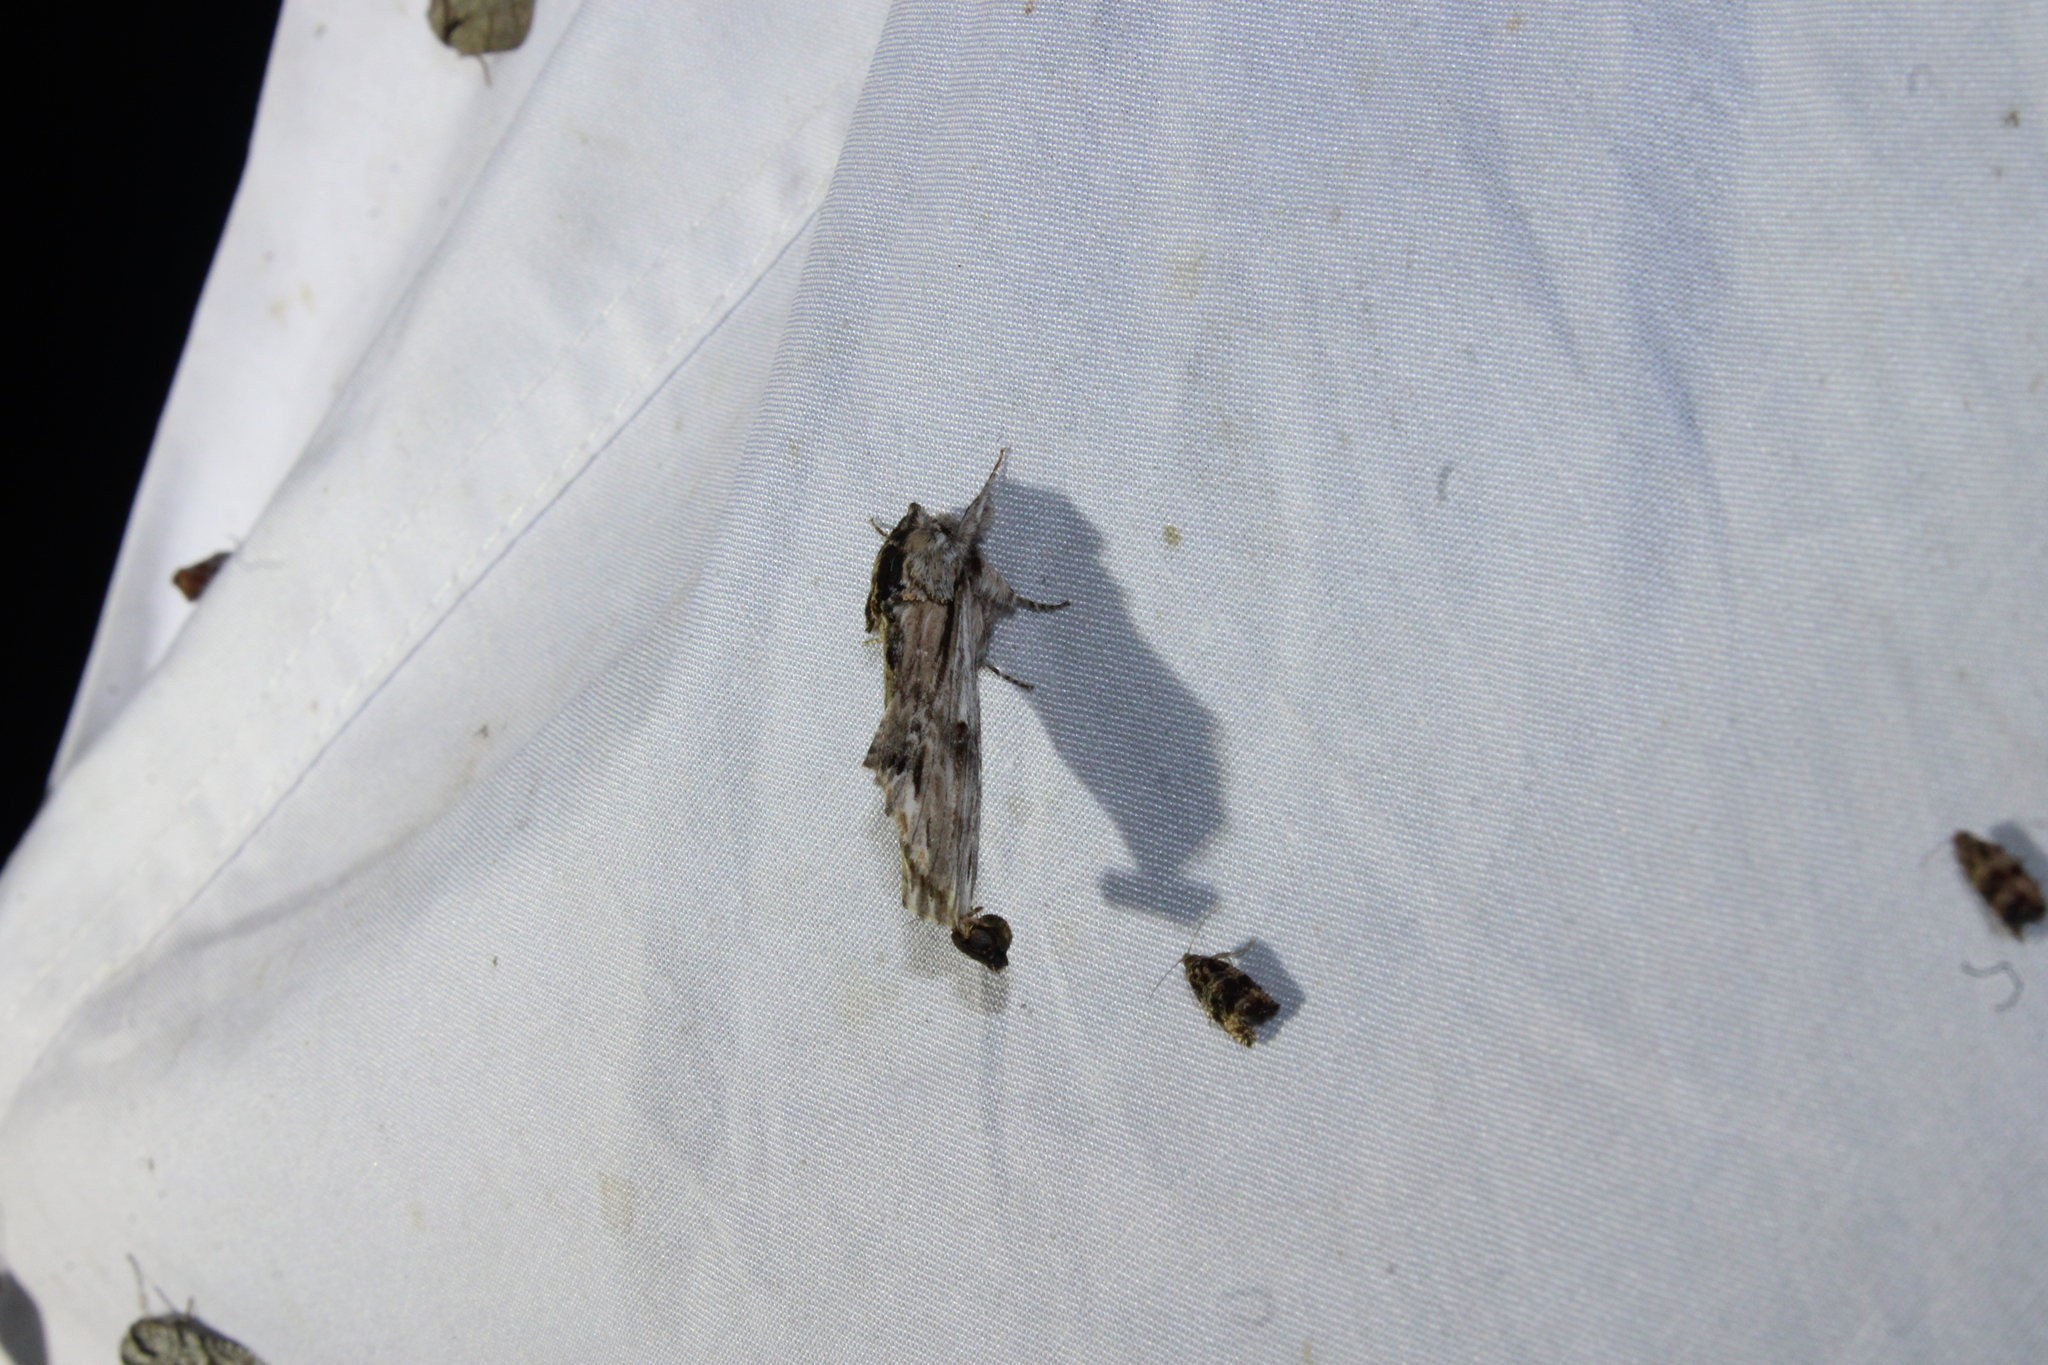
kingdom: Animalia
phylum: Arthropoda
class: Insecta
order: Lepidoptera
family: Notodontidae
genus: Oligocentria
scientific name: Oligocentria Ianassa lignicolor
